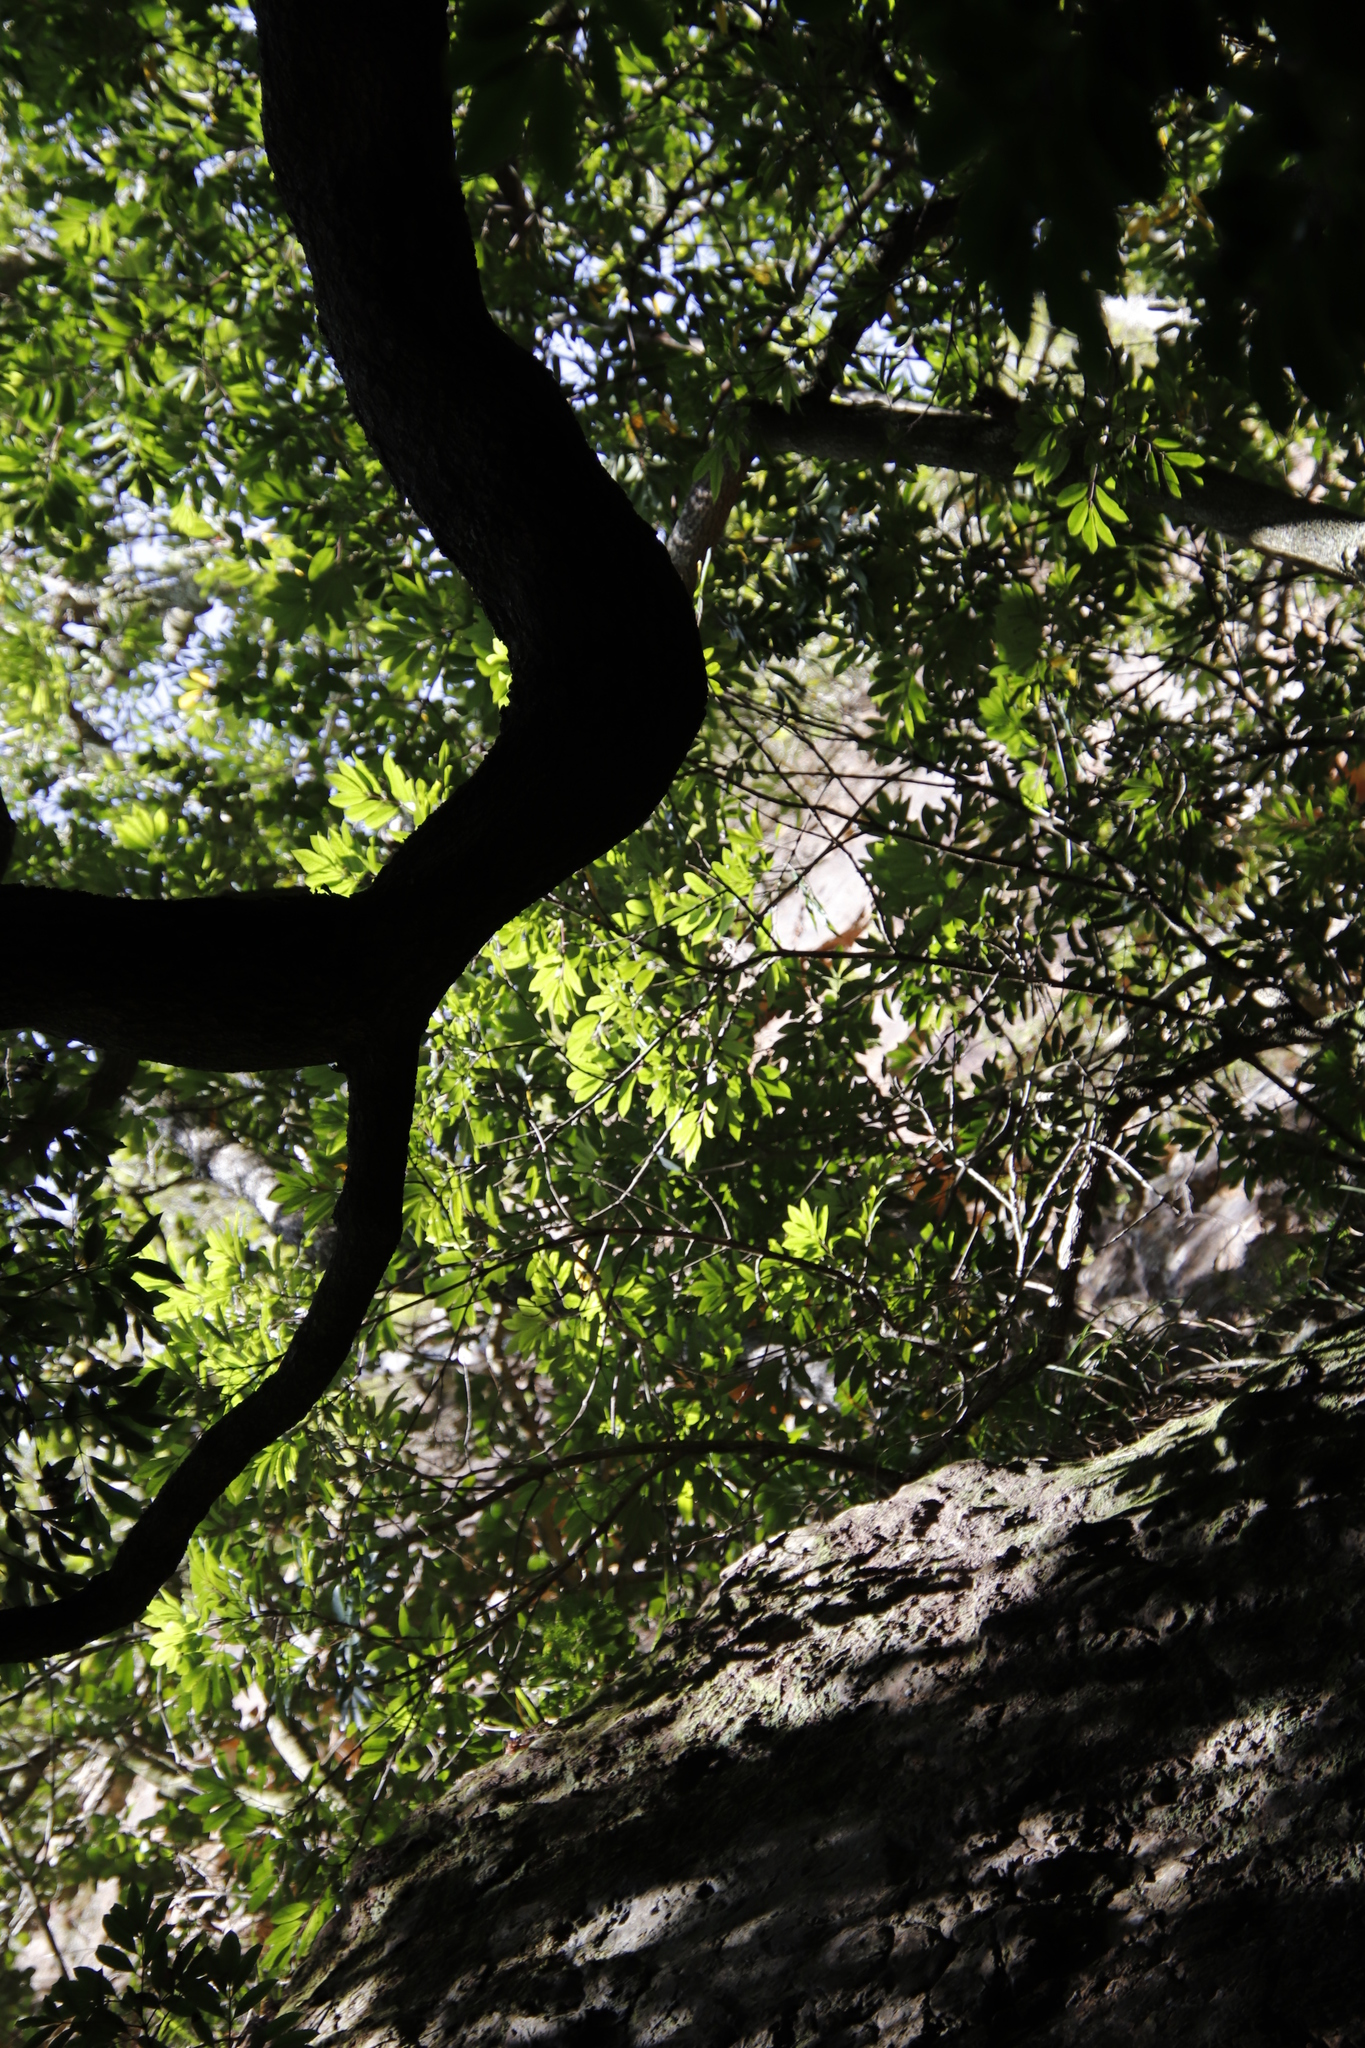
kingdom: Plantae
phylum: Tracheophyta
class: Magnoliopsida
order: Oxalidales
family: Cunoniaceae
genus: Cunonia
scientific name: Cunonia capensis
